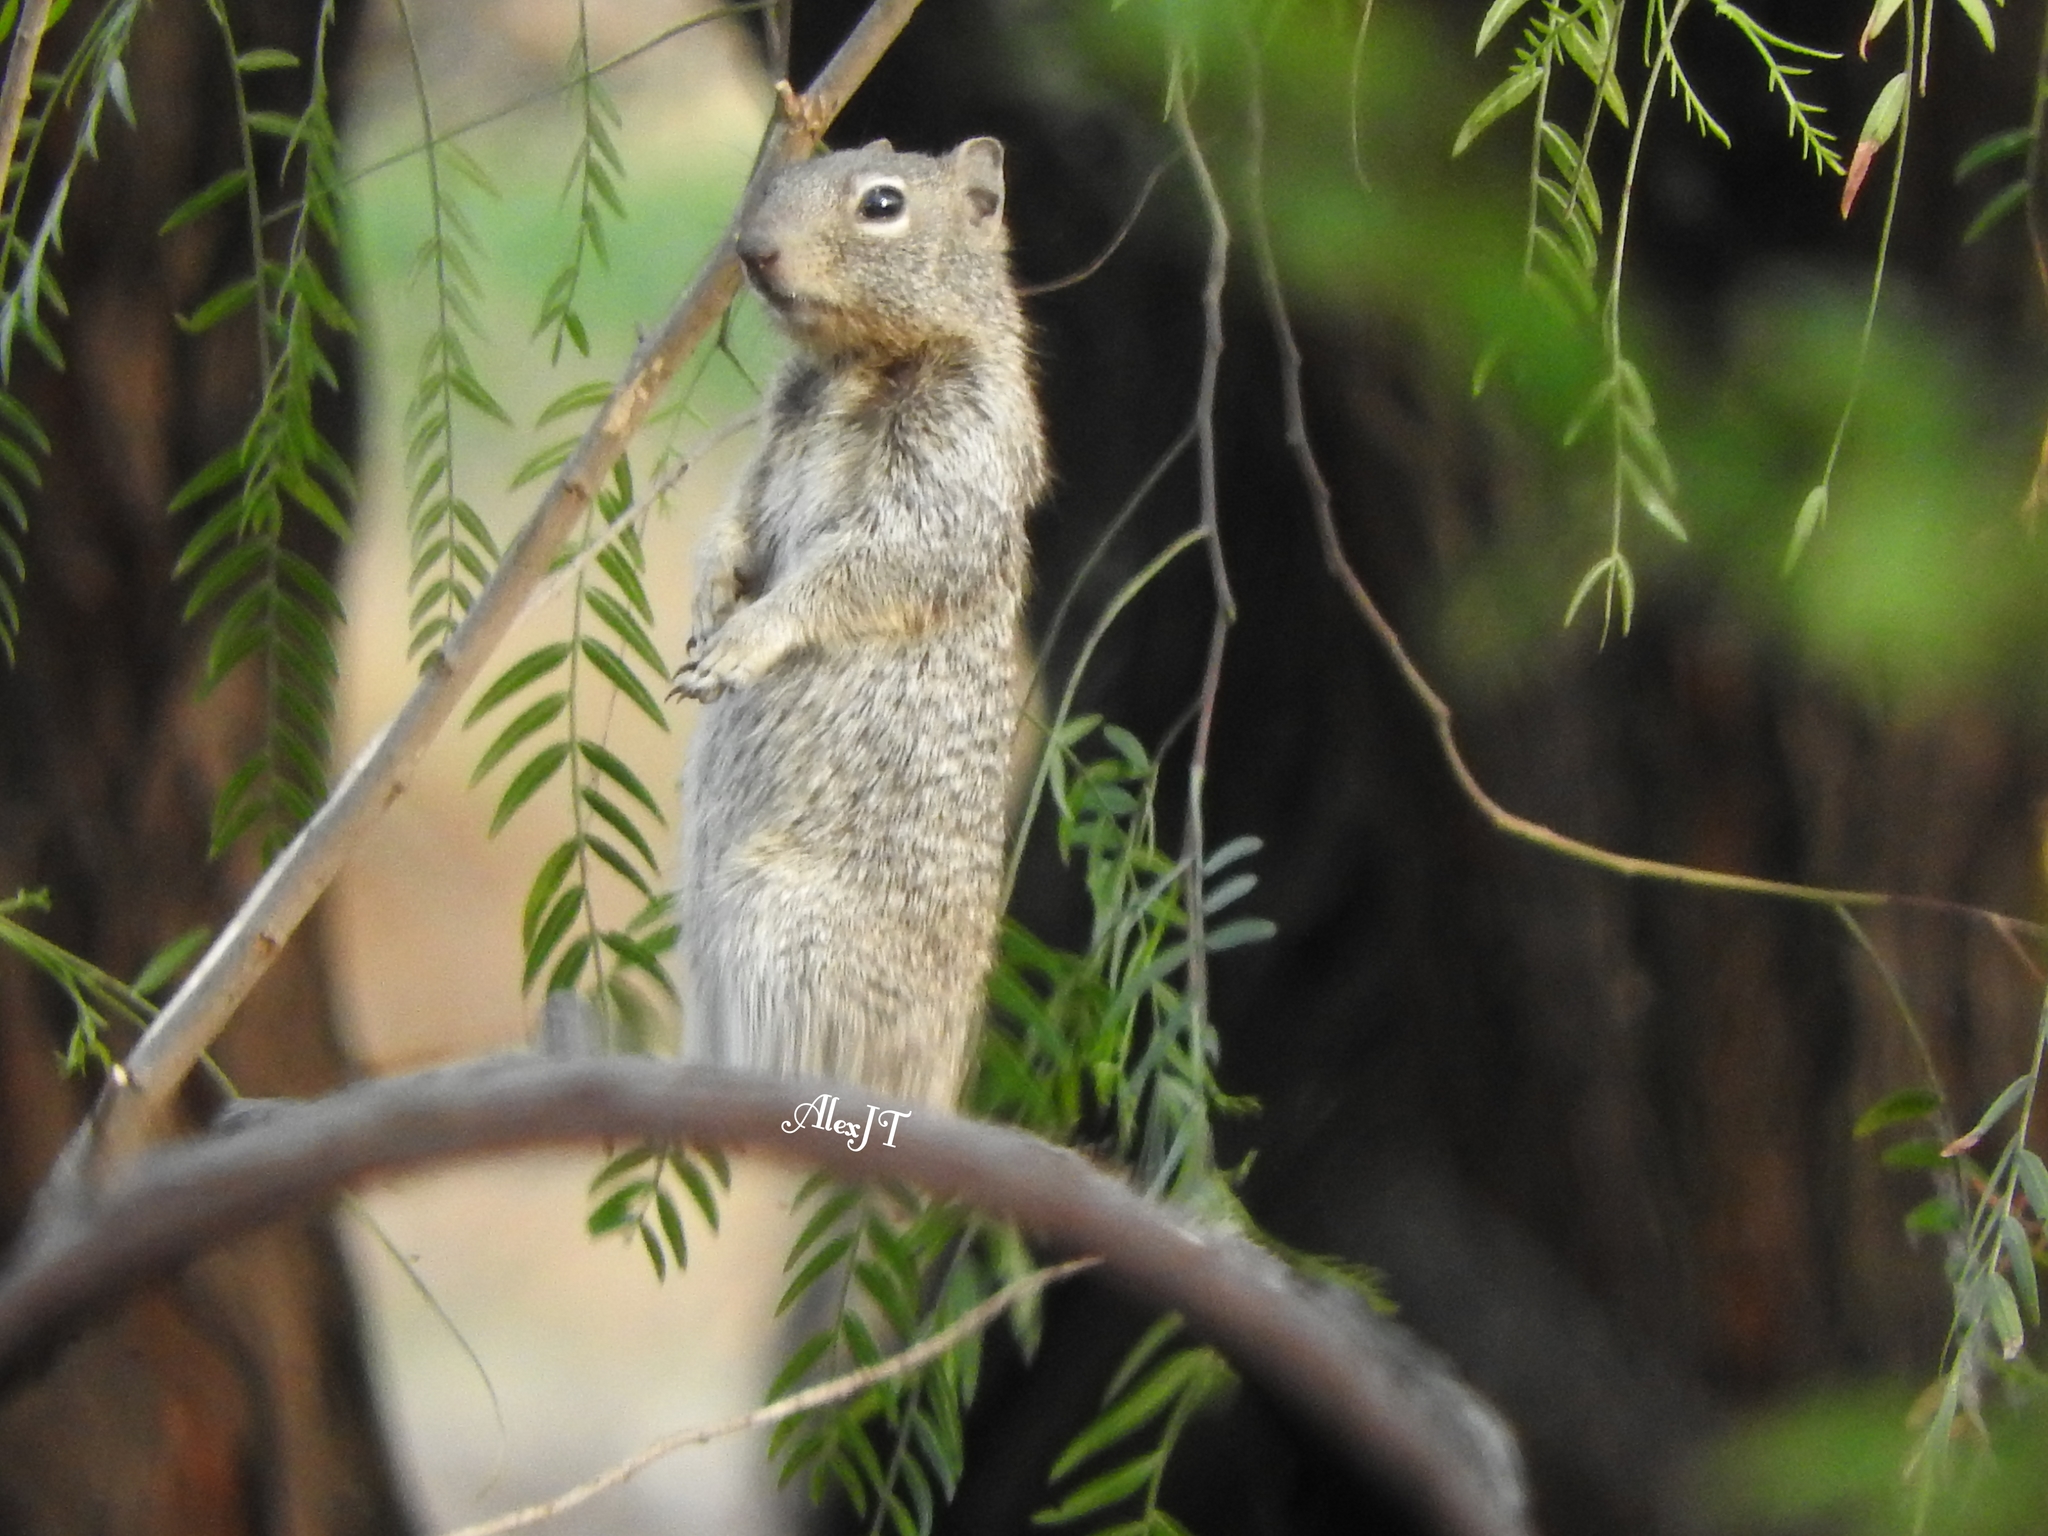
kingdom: Animalia
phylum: Chordata
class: Mammalia
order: Rodentia
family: Sciuridae
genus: Otospermophilus
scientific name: Otospermophilus variegatus
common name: Rock squirrel
